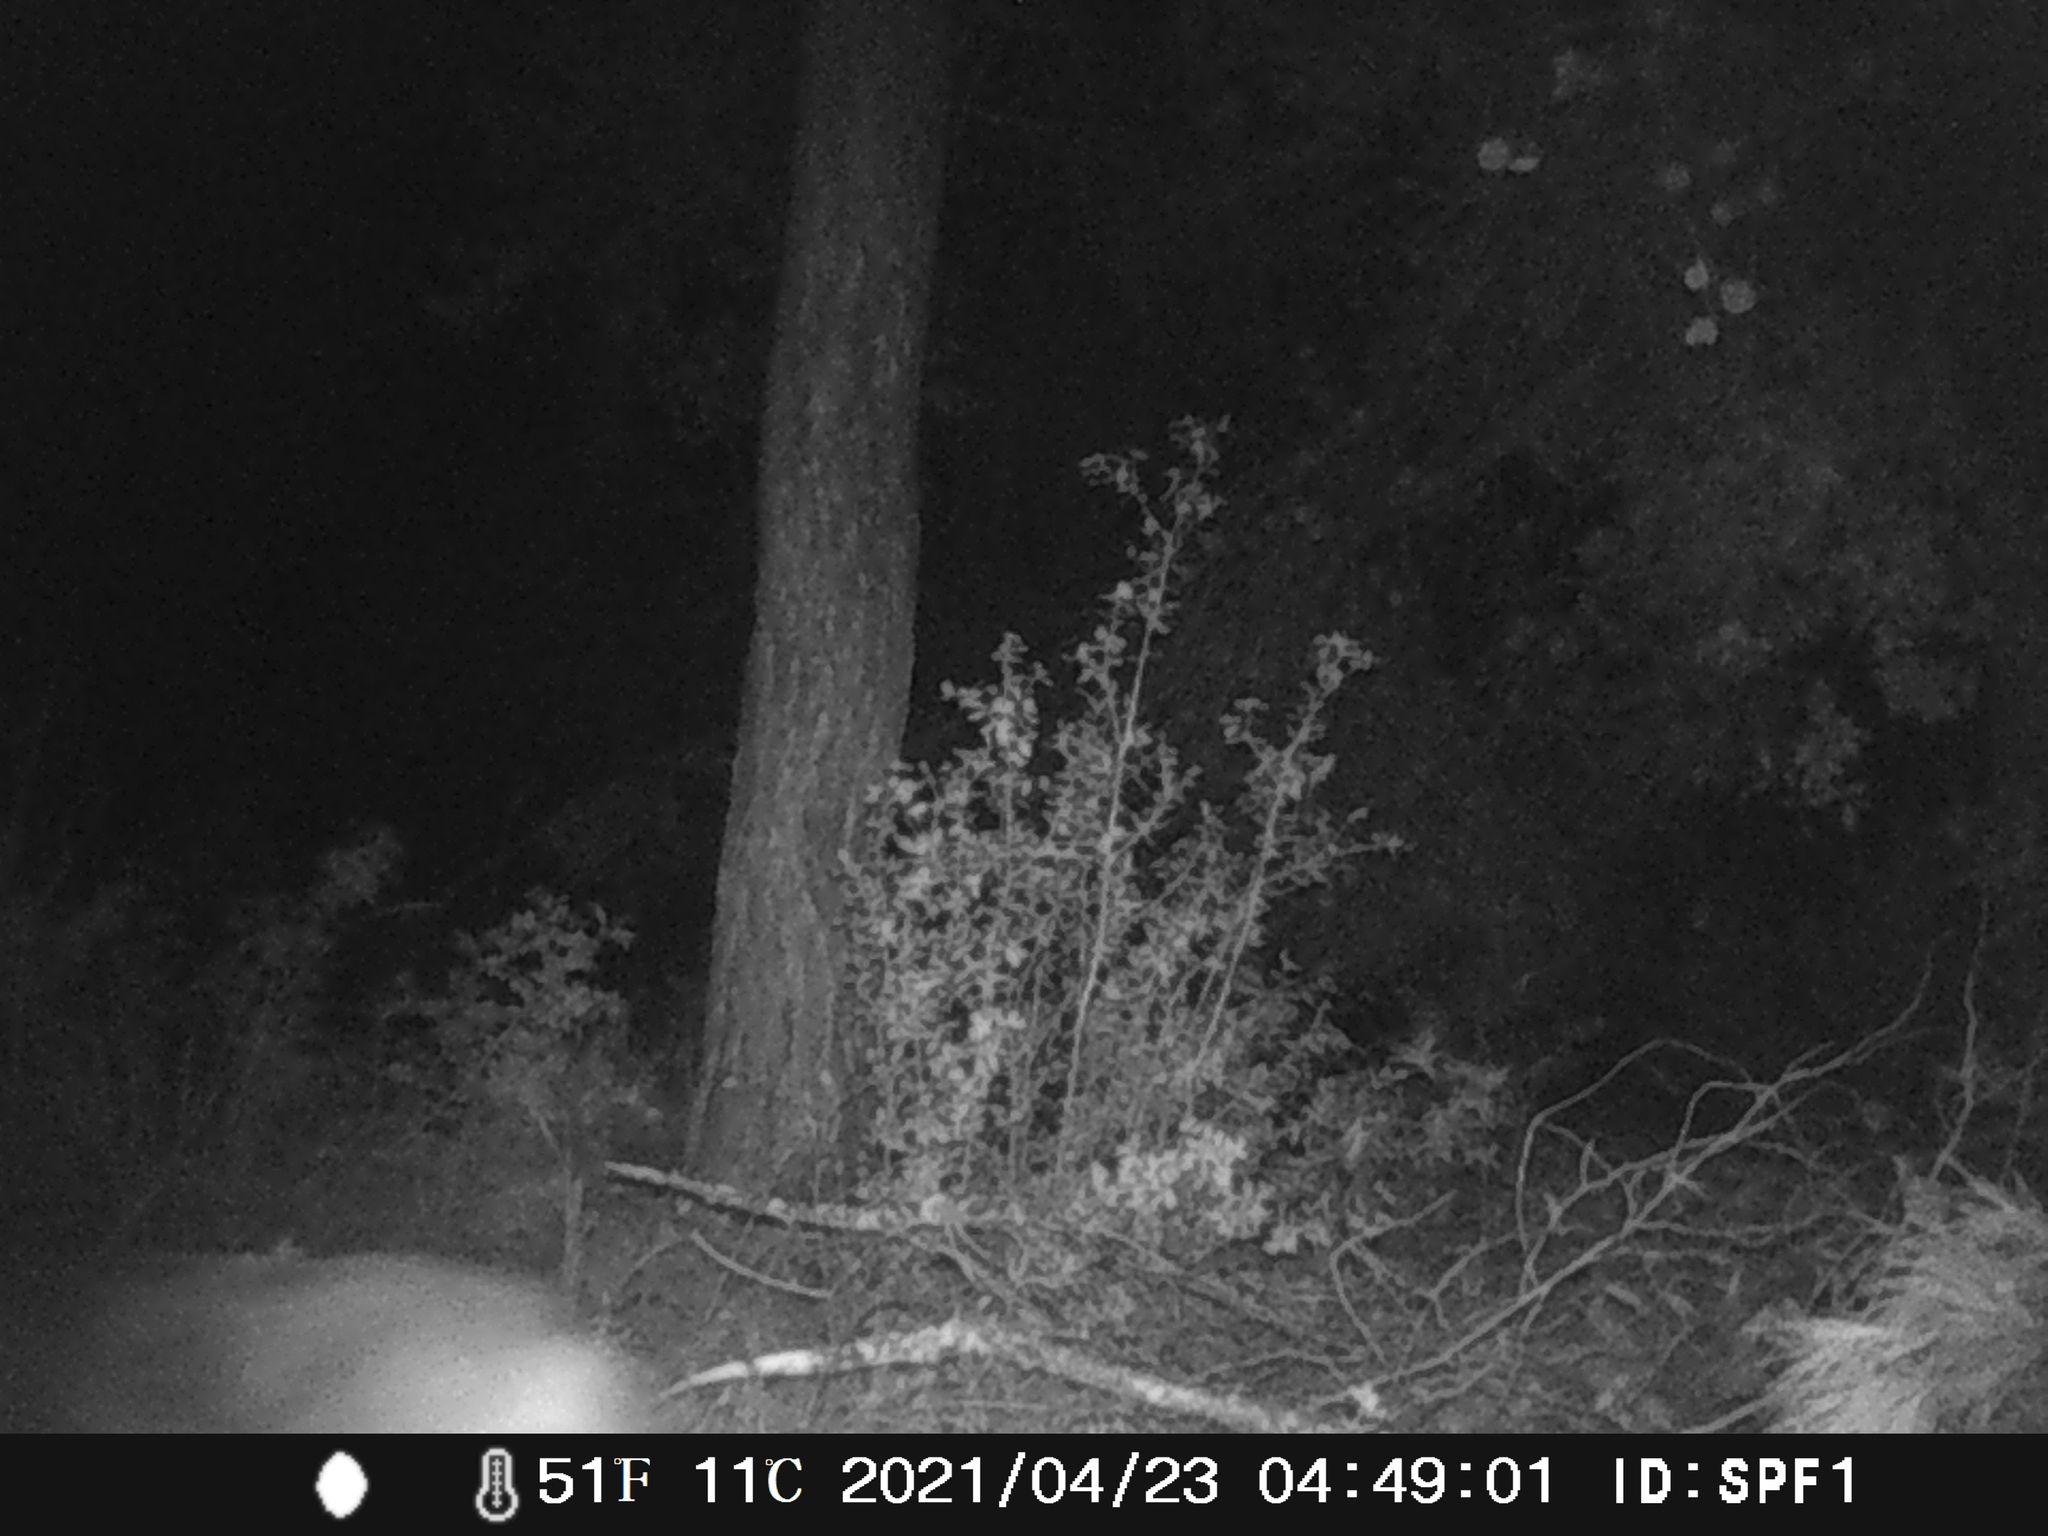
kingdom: Animalia
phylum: Chordata
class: Mammalia
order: Artiodactyla
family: Suidae
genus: Sus
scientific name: Sus scrofa
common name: Wild boar
